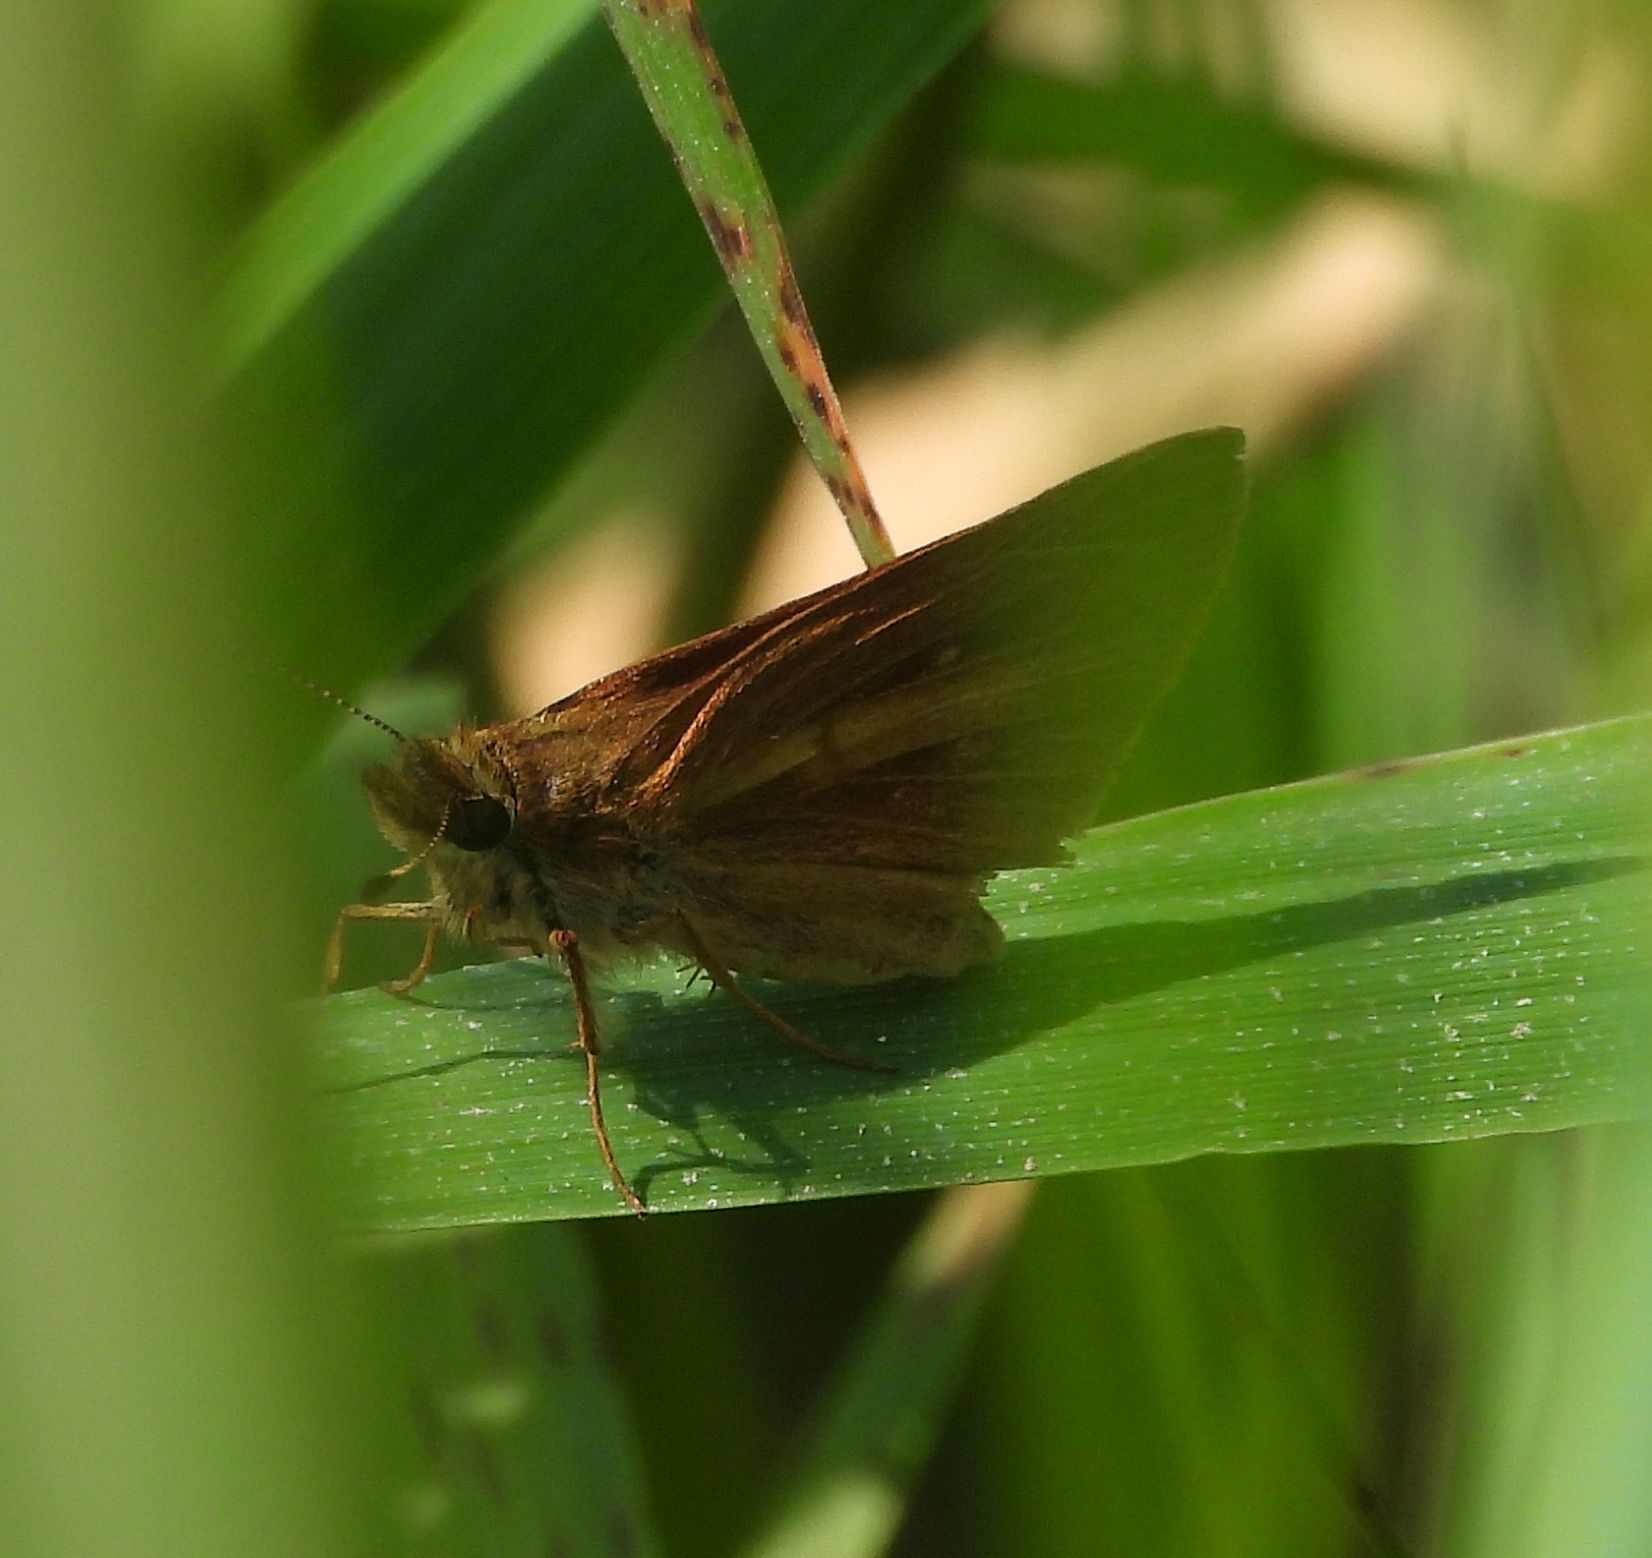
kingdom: Animalia
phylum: Arthropoda
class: Insecta
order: Lepidoptera
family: Hesperiidae
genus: Poanes
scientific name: Poanes viator
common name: Broad-winged skipper
